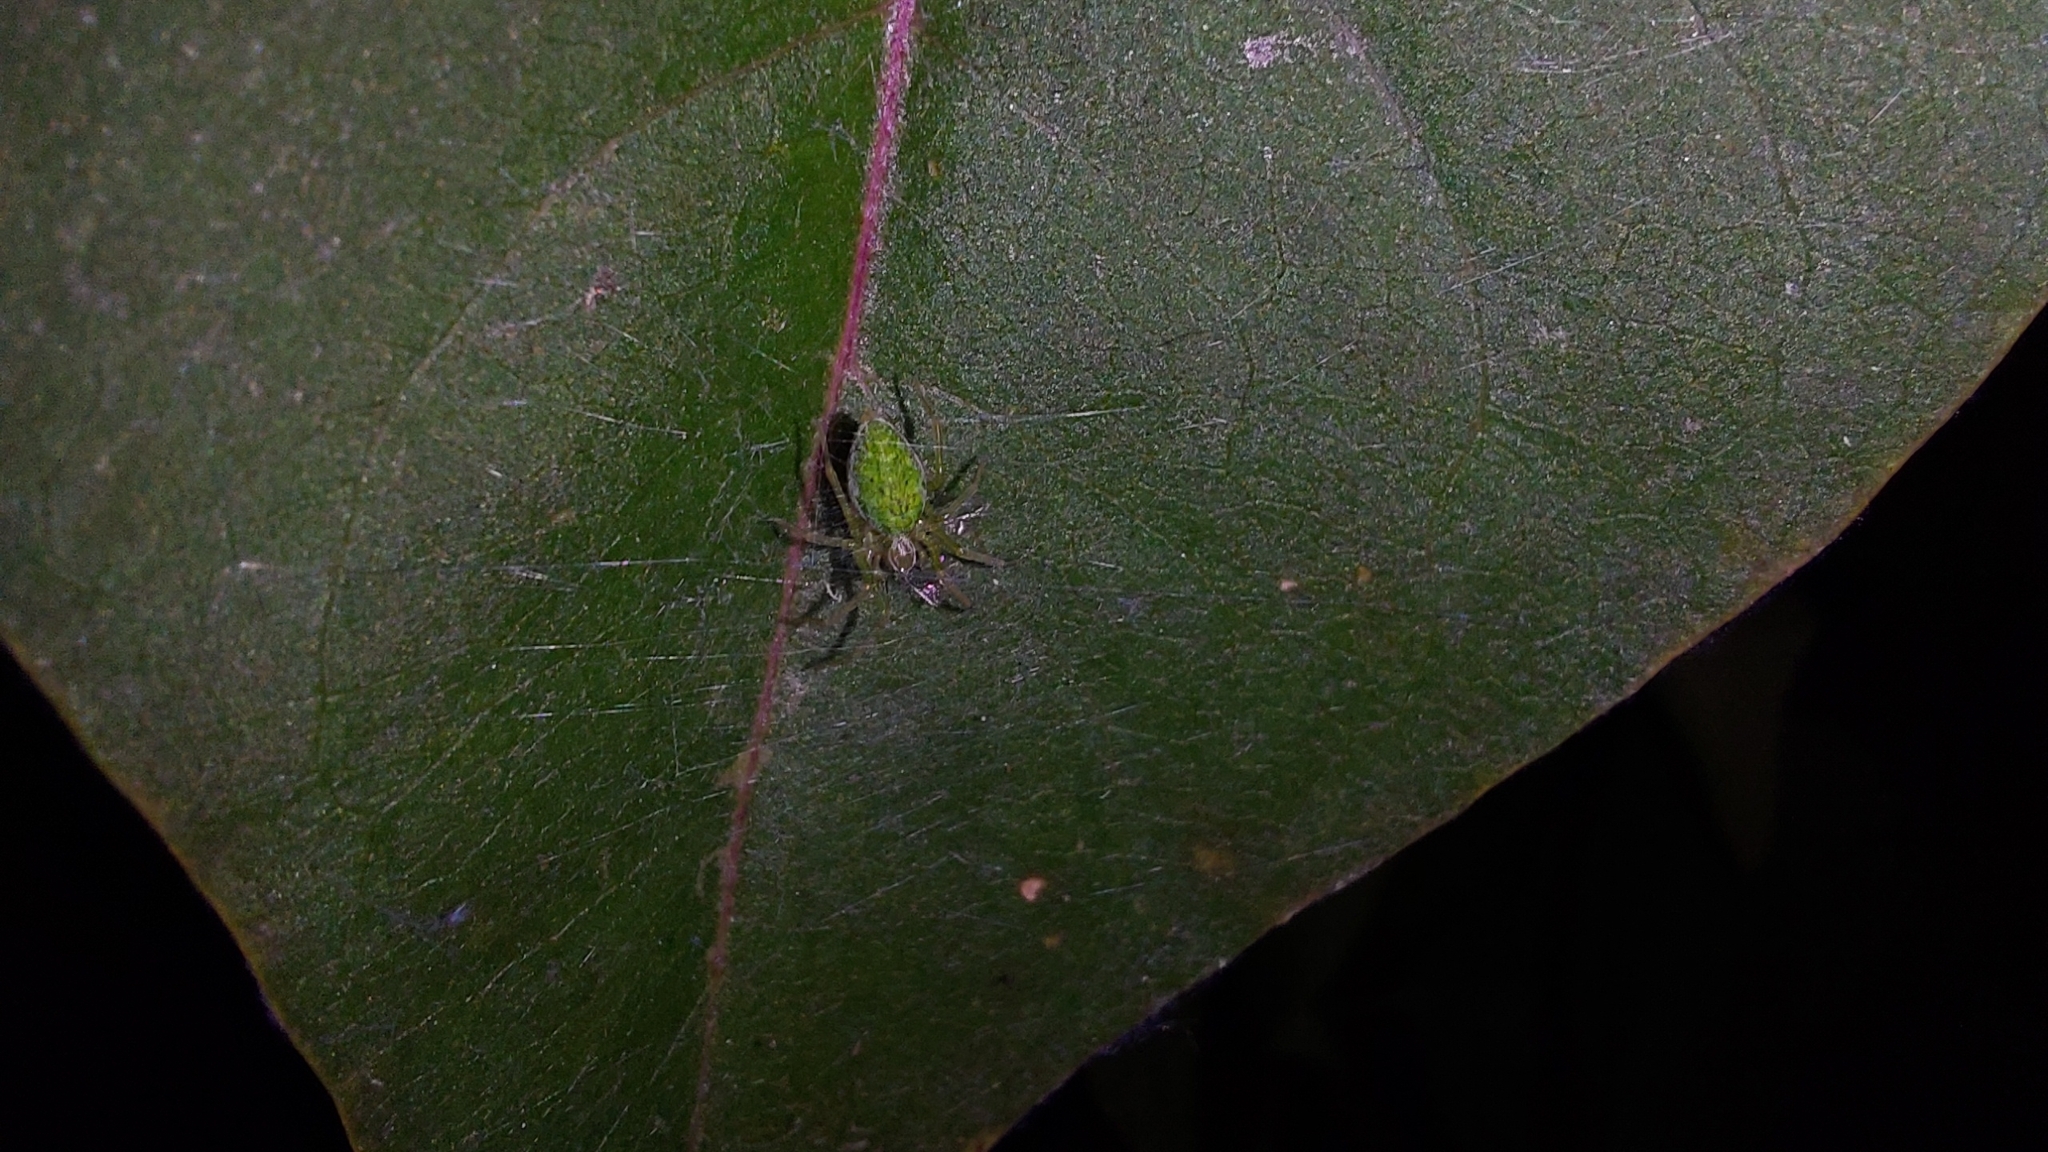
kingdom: Animalia
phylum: Arthropoda
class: Arachnida
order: Araneae
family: Dictynidae
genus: Nigma
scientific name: Nigma walckenaeri
